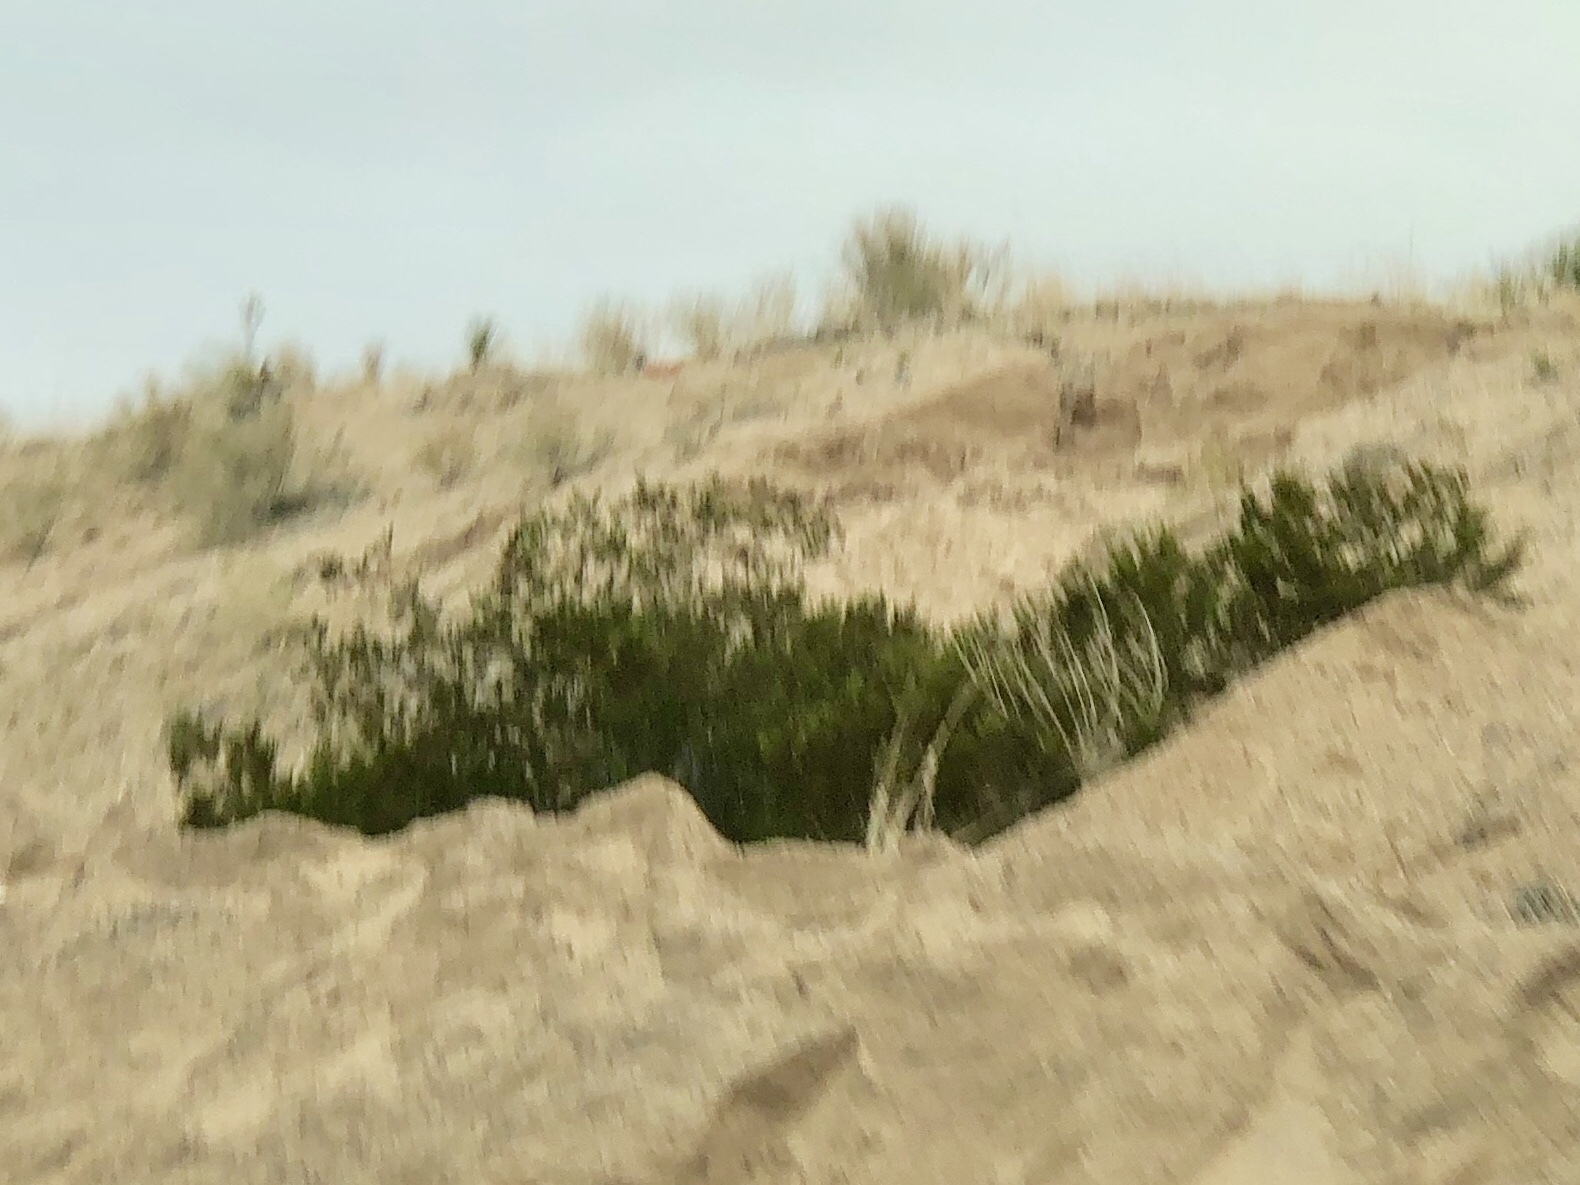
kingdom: Plantae
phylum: Tracheophyta
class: Magnoliopsida
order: Zygophyllales
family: Zygophyllaceae
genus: Larrea
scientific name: Larrea tridentata
